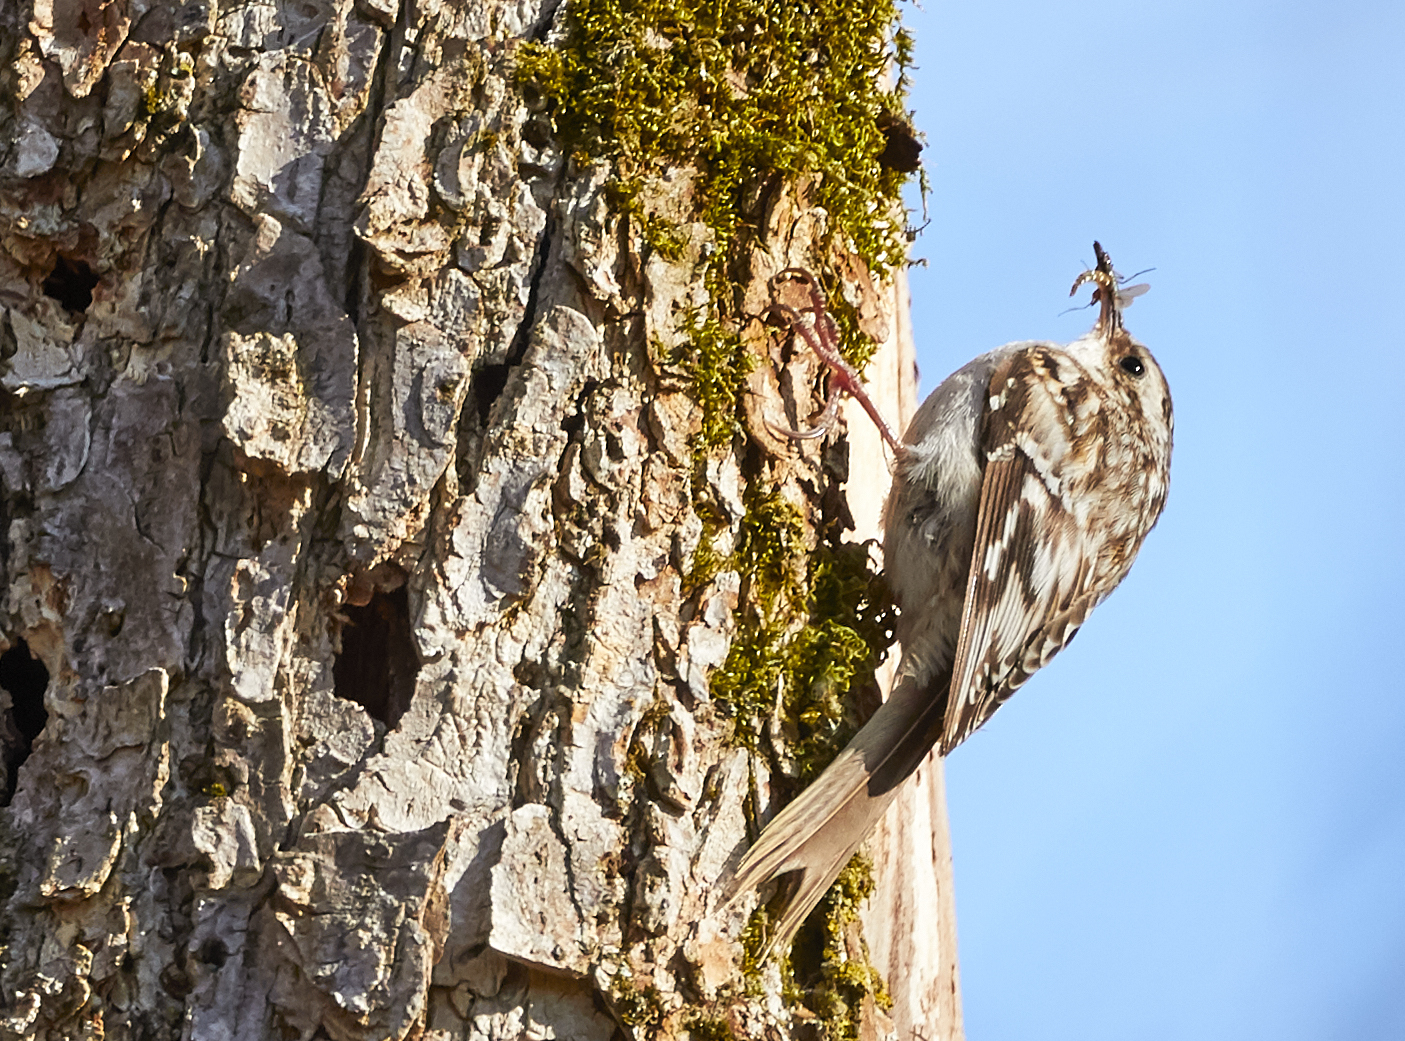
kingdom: Animalia
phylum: Chordata
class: Aves
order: Passeriformes
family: Certhiidae
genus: Certhia
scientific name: Certhia americana
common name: Brown creeper
